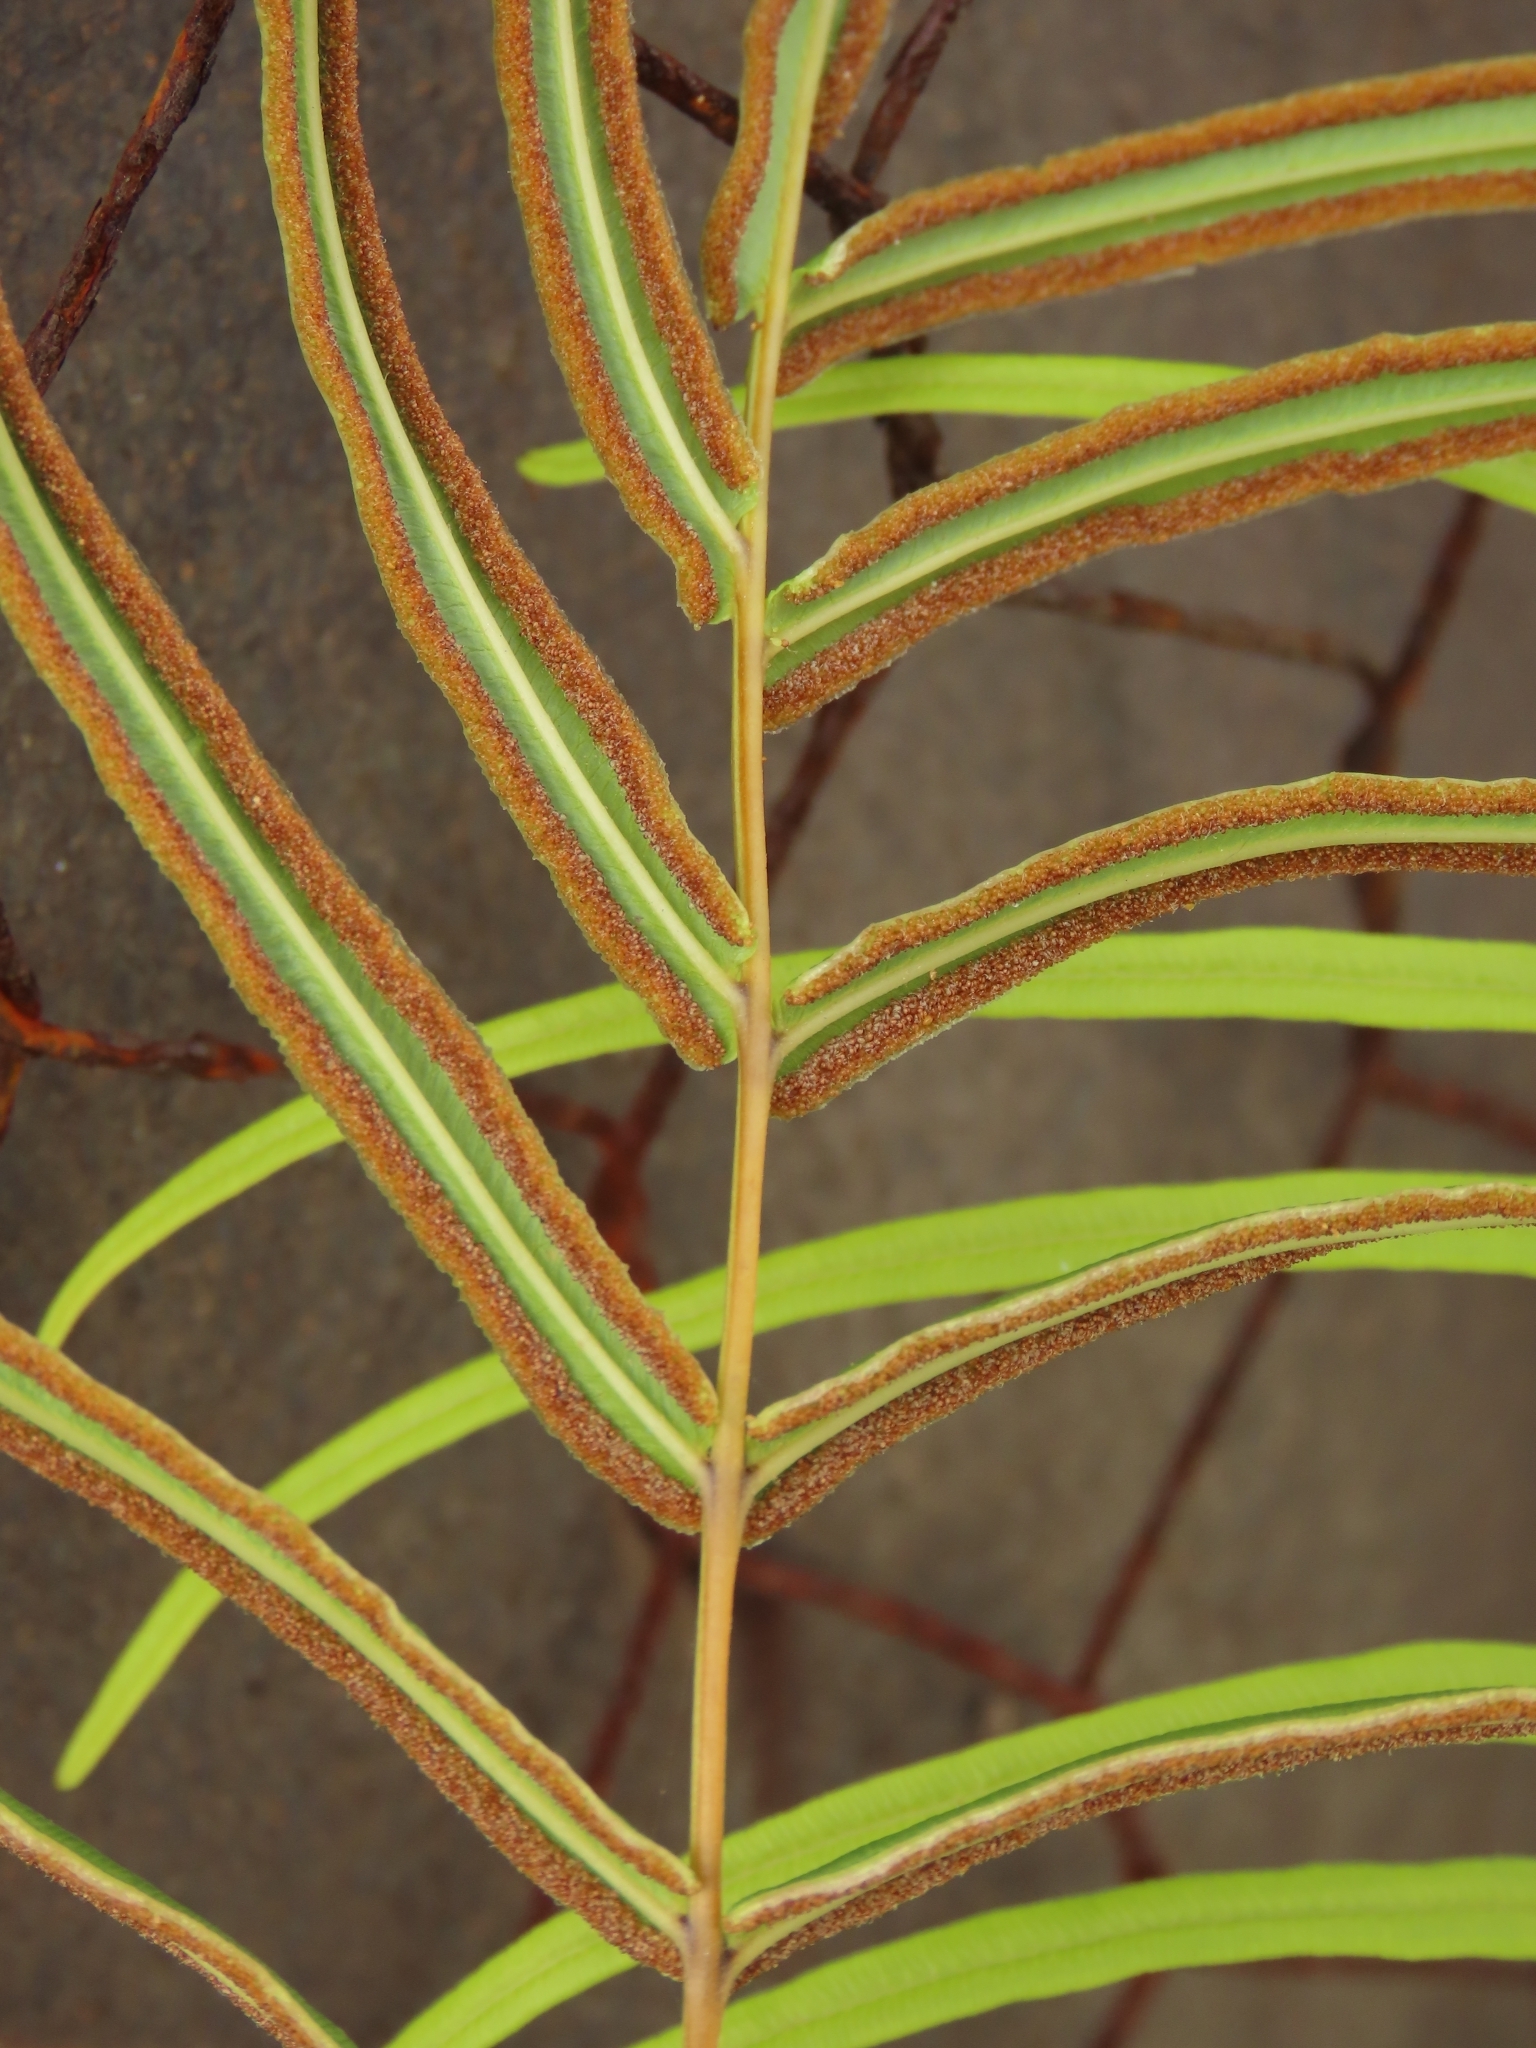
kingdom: Plantae
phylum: Tracheophyta
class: Polypodiopsida
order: Polypodiales
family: Pteridaceae
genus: Pteris
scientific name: Pteris vittata
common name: Ladder brake
